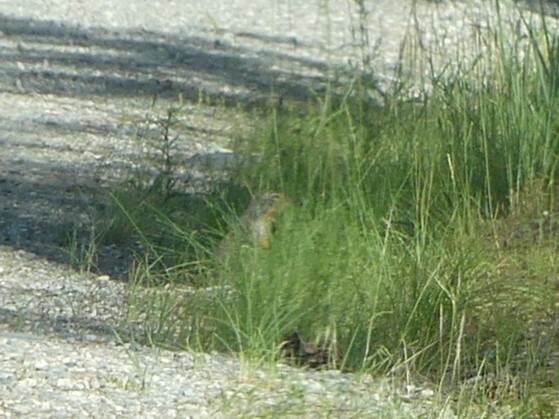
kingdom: Animalia
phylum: Chordata
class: Mammalia
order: Rodentia
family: Sciuridae
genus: Urocitellus
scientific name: Urocitellus columbianus
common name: Columbian ground squirrel
